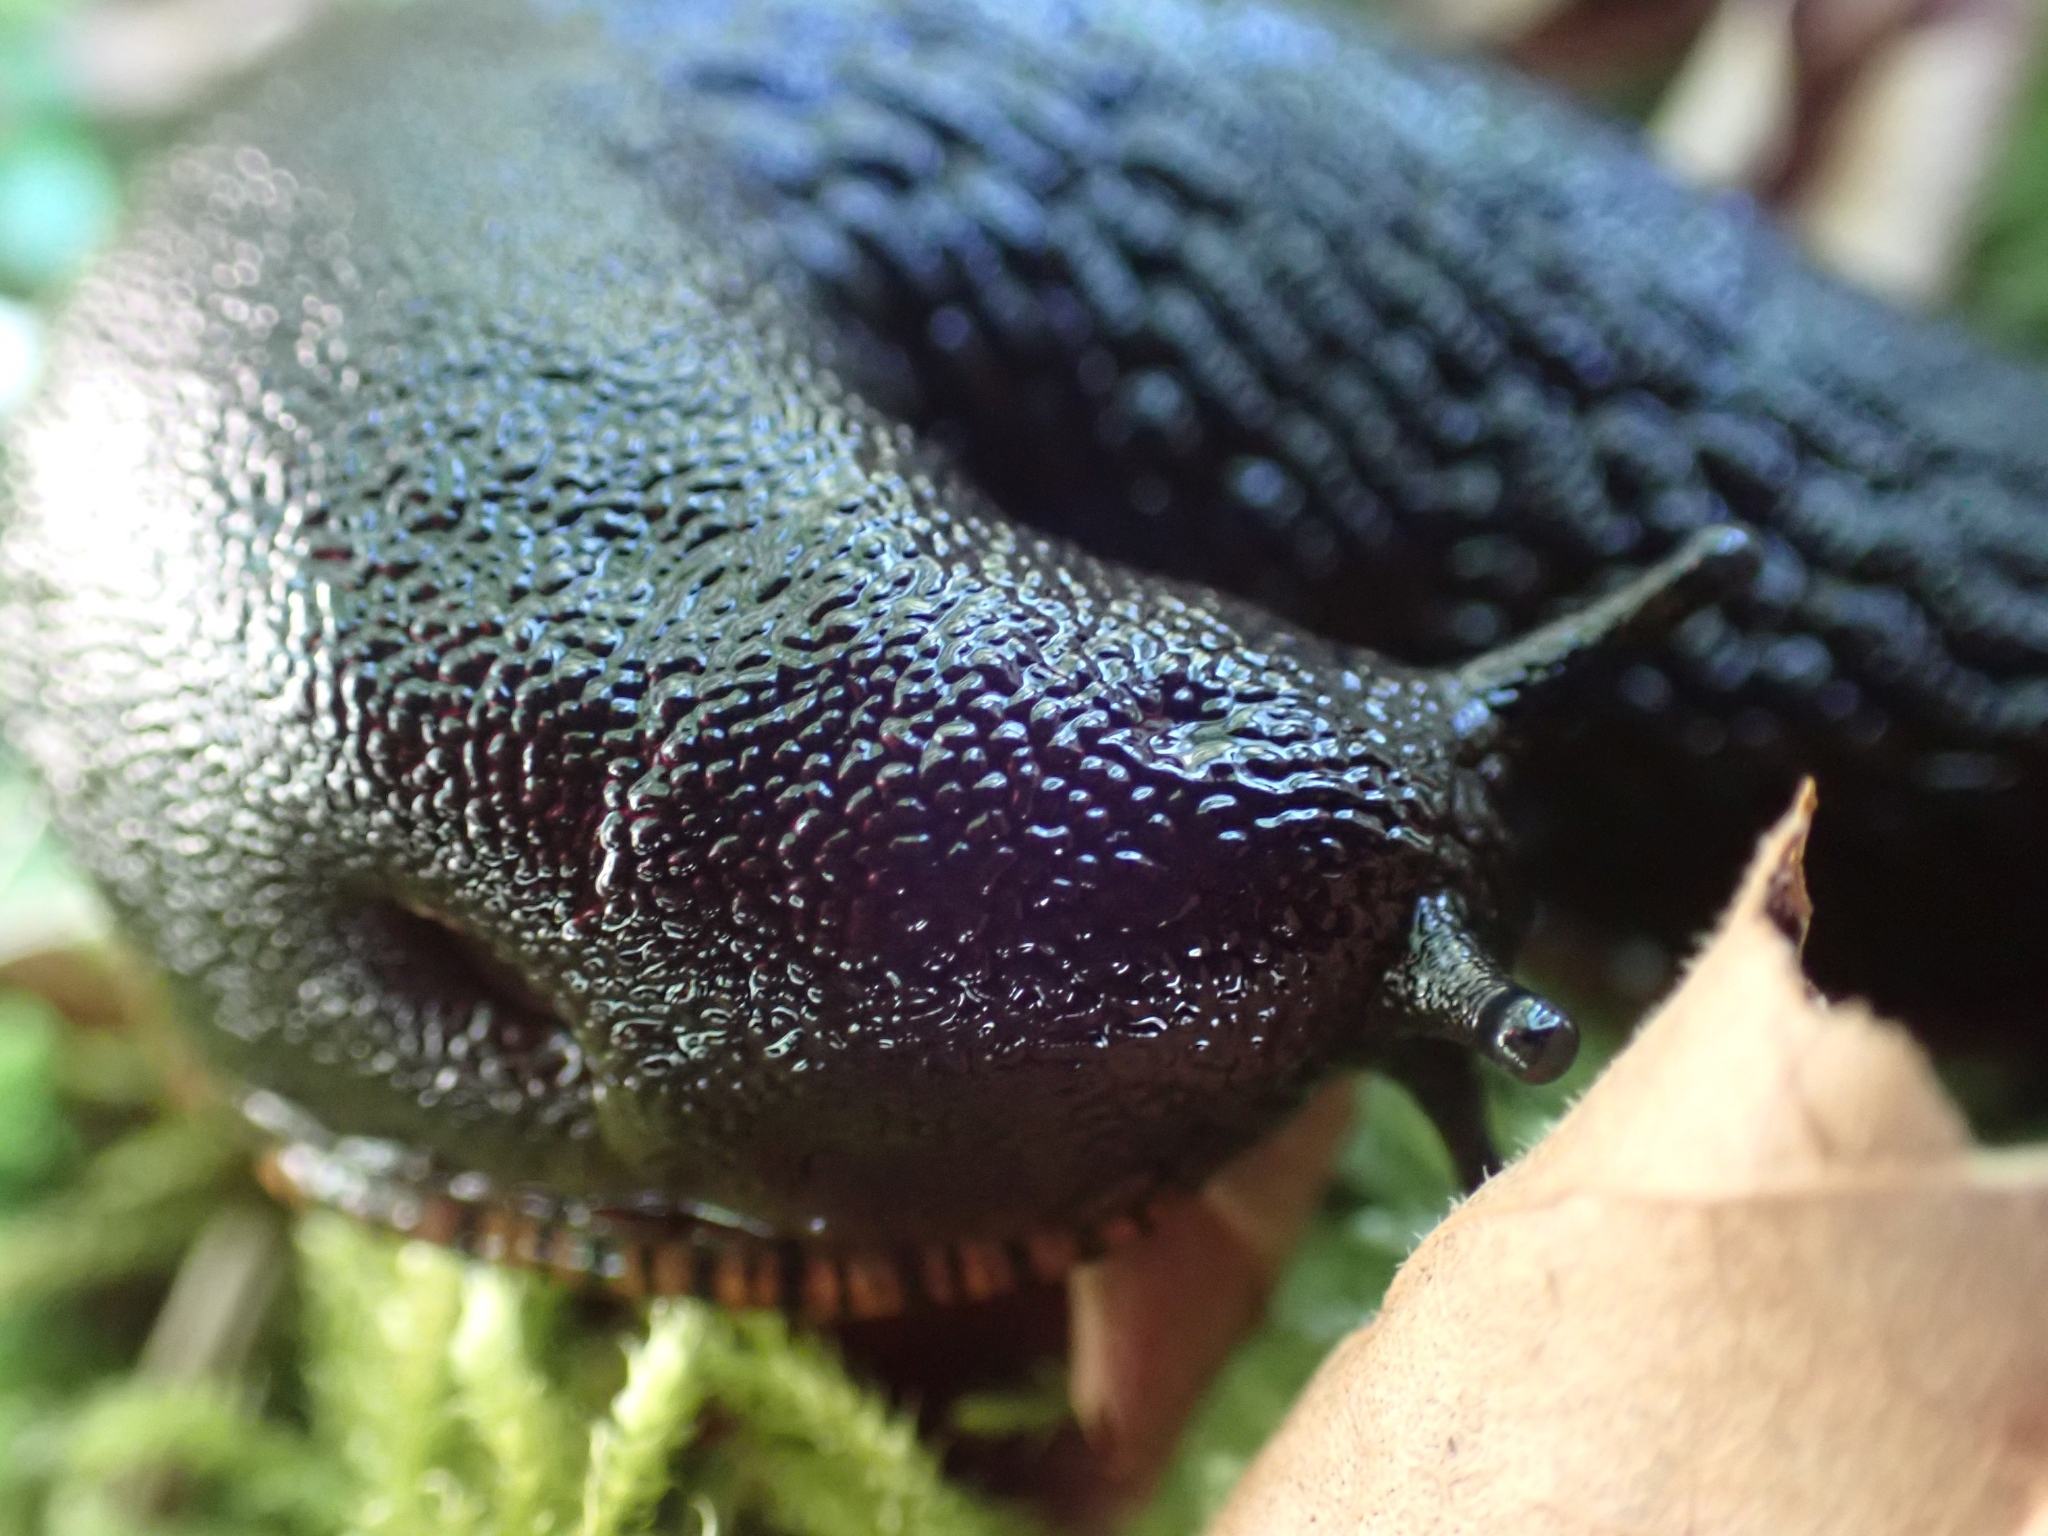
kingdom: Animalia
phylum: Mollusca
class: Gastropoda
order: Stylommatophora
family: Arionidae
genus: Arion
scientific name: Arion
